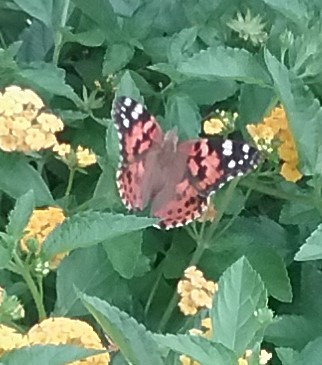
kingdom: Animalia
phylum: Arthropoda
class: Insecta
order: Lepidoptera
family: Nymphalidae
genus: Vanessa
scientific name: Vanessa cardui
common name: Painted lady
